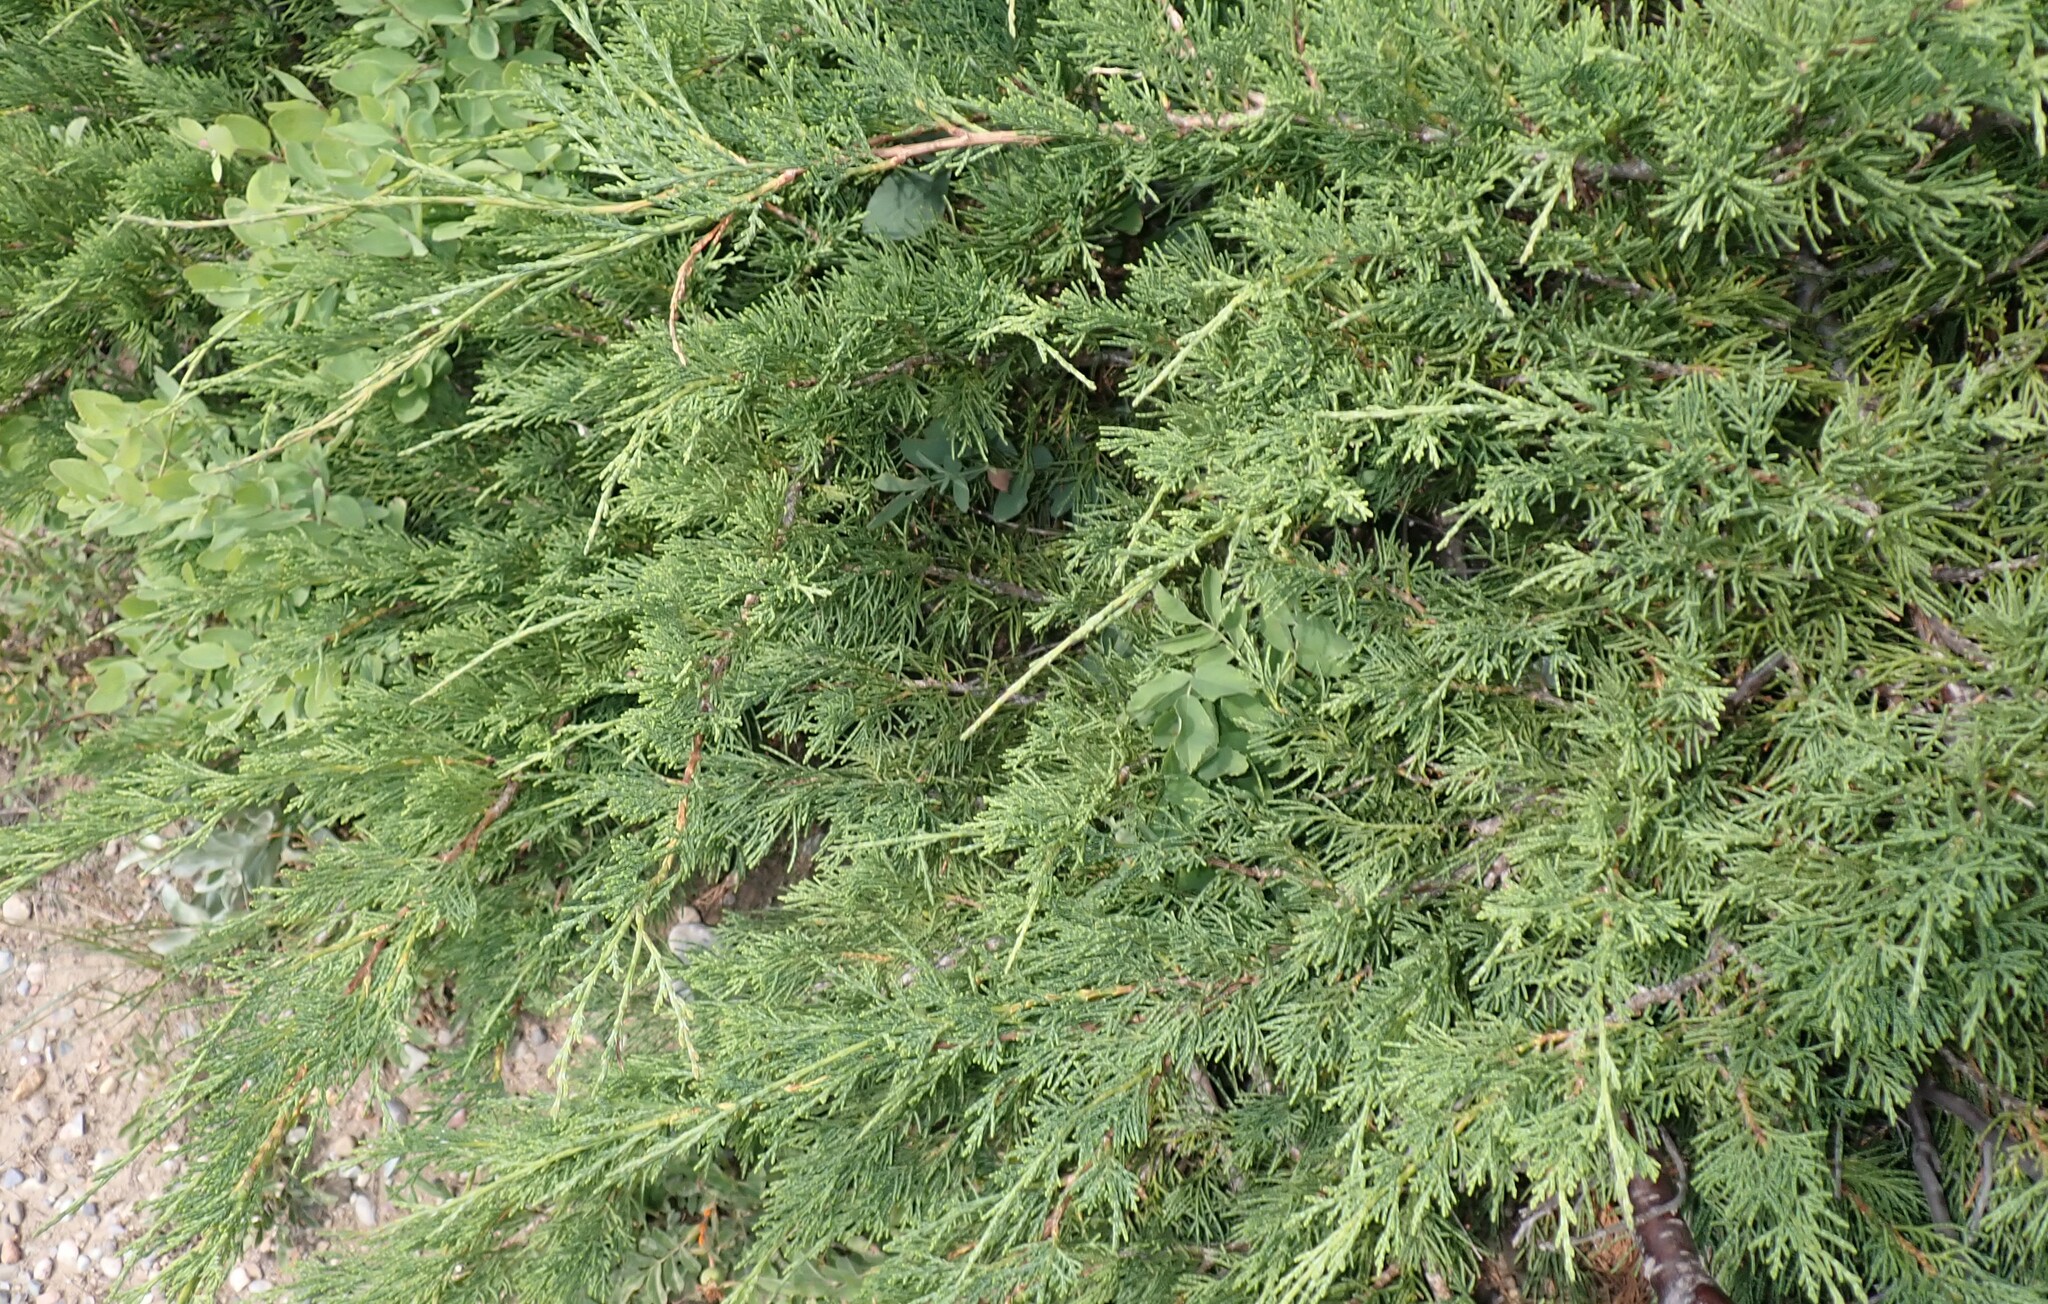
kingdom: Plantae
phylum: Tracheophyta
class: Pinopsida
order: Pinales
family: Cupressaceae
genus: Juniperus
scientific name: Juniperus horizontalis
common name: Creeping juniper
